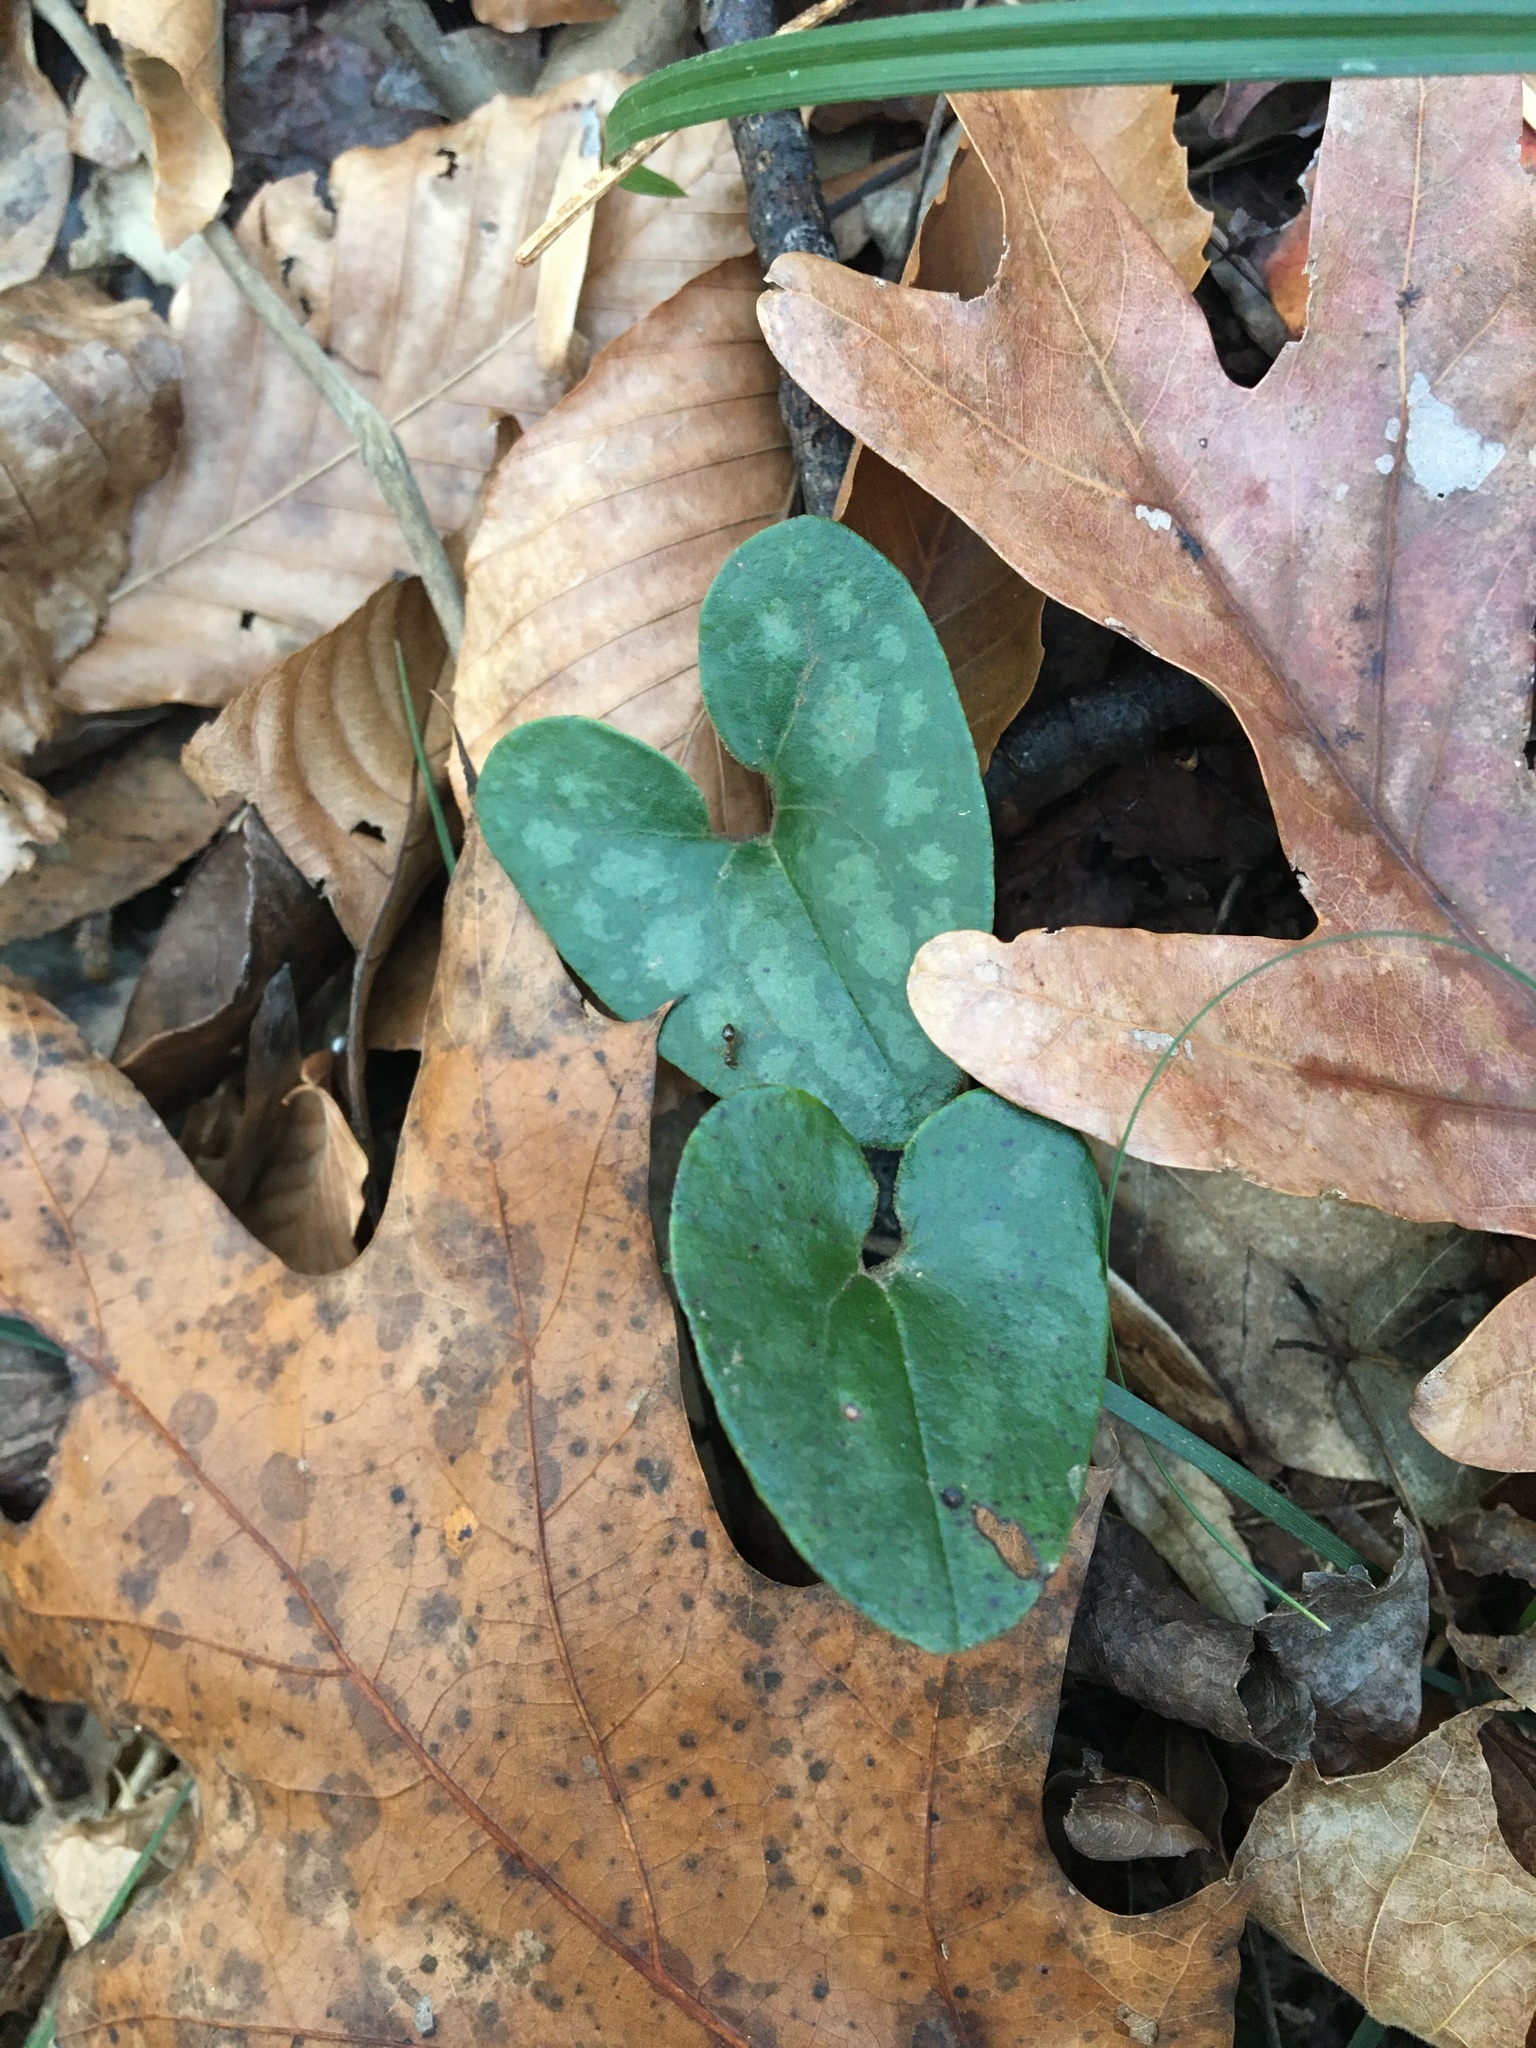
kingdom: Plantae
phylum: Tracheophyta
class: Magnoliopsida
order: Piperales
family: Aristolochiaceae
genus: Hexastylis
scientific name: Hexastylis arifolia
